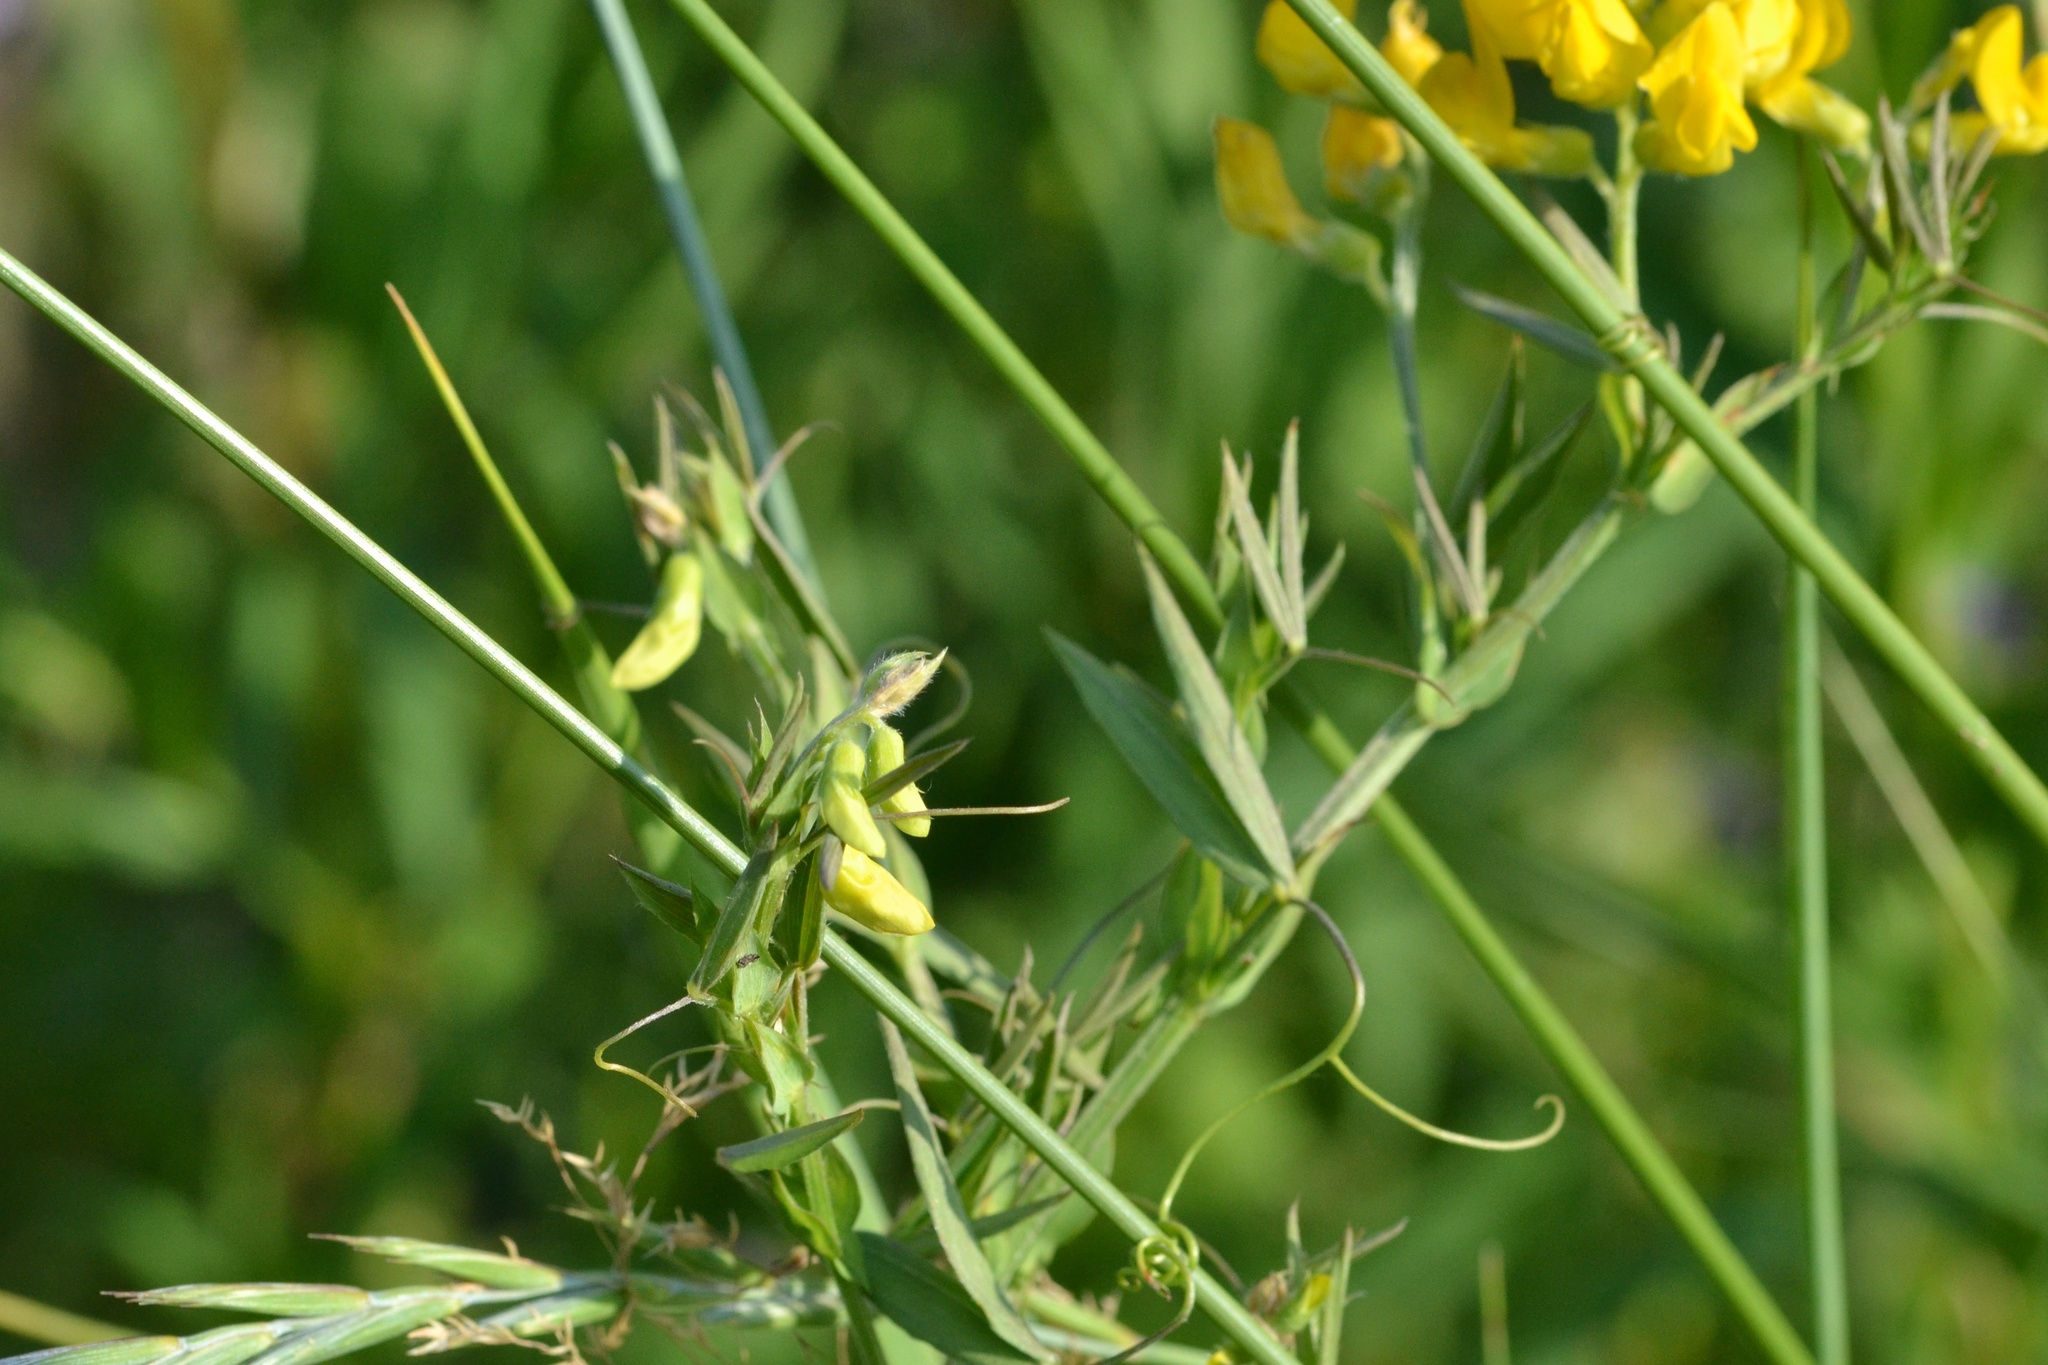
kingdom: Plantae
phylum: Tracheophyta
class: Magnoliopsida
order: Fabales
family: Fabaceae
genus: Lathyrus
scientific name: Lathyrus pratensis
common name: Meadow vetchling
